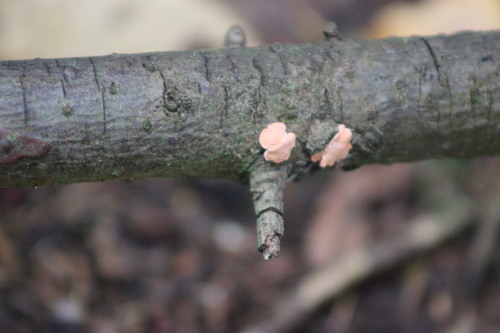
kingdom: Fungi
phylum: Basidiomycota
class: Agaricomycetes
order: Russulales
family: Stereaceae
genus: Aleurodiscus
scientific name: Aleurodiscus amorphus
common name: Orange discus
